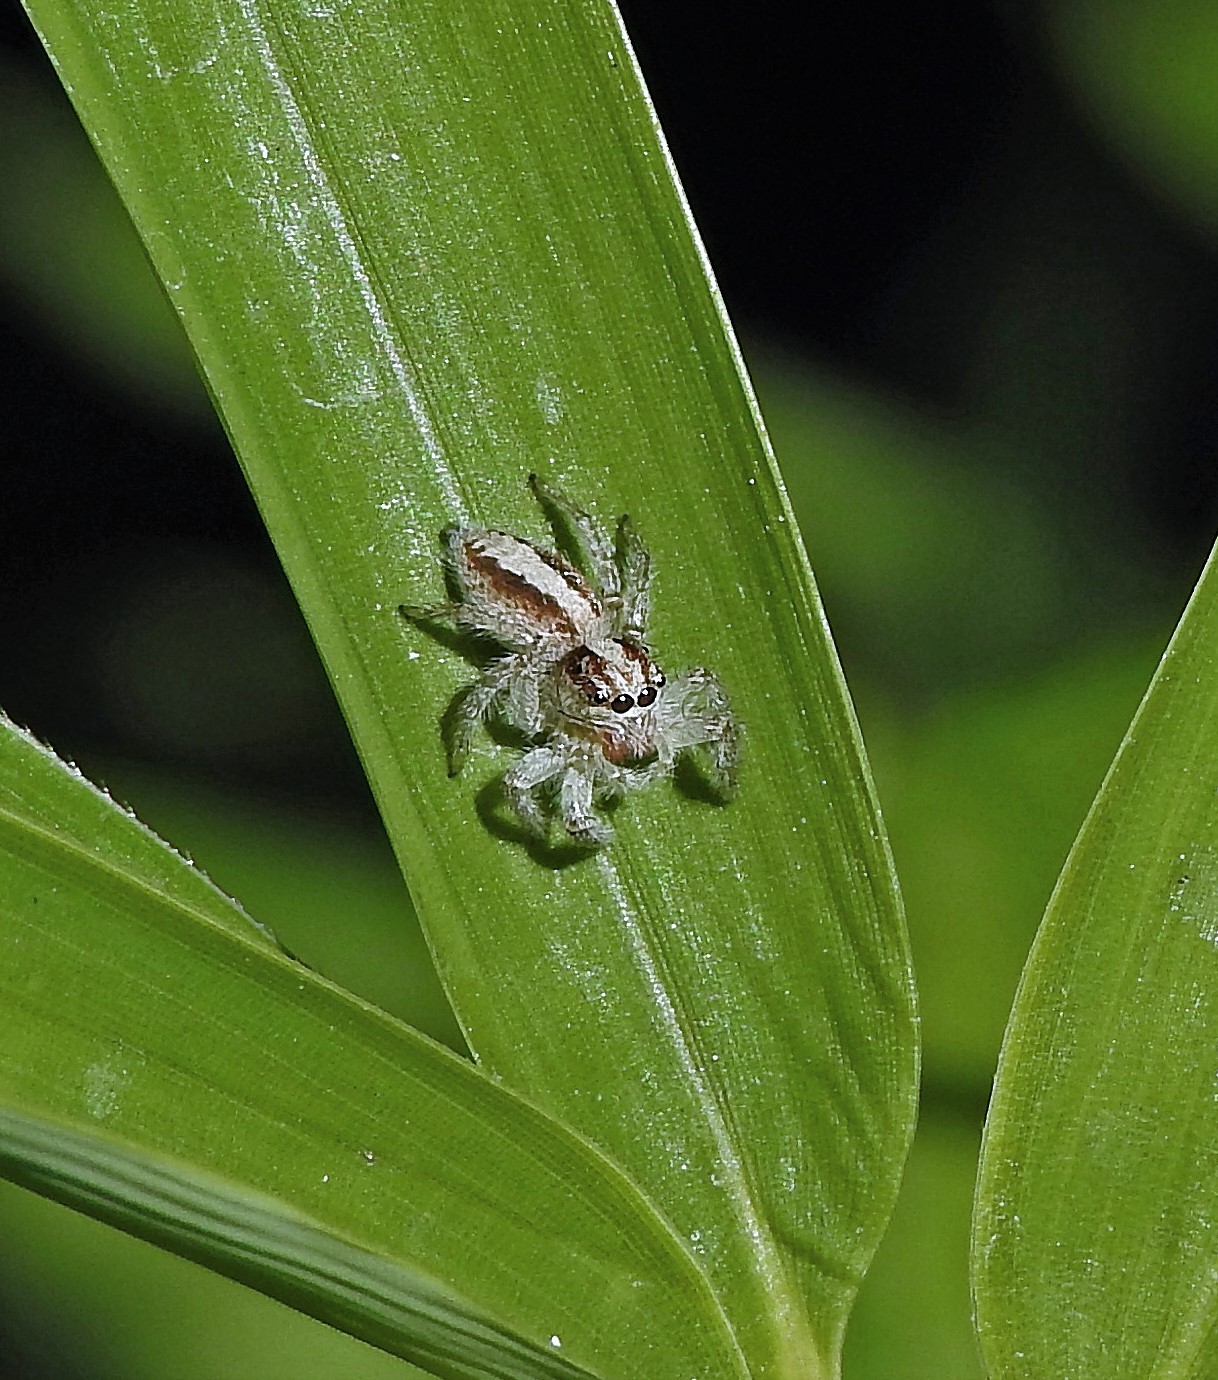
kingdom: Animalia
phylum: Arthropoda
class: Arachnida
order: Araneae
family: Salticidae
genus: Megafreya
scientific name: Megafreya sutrix
